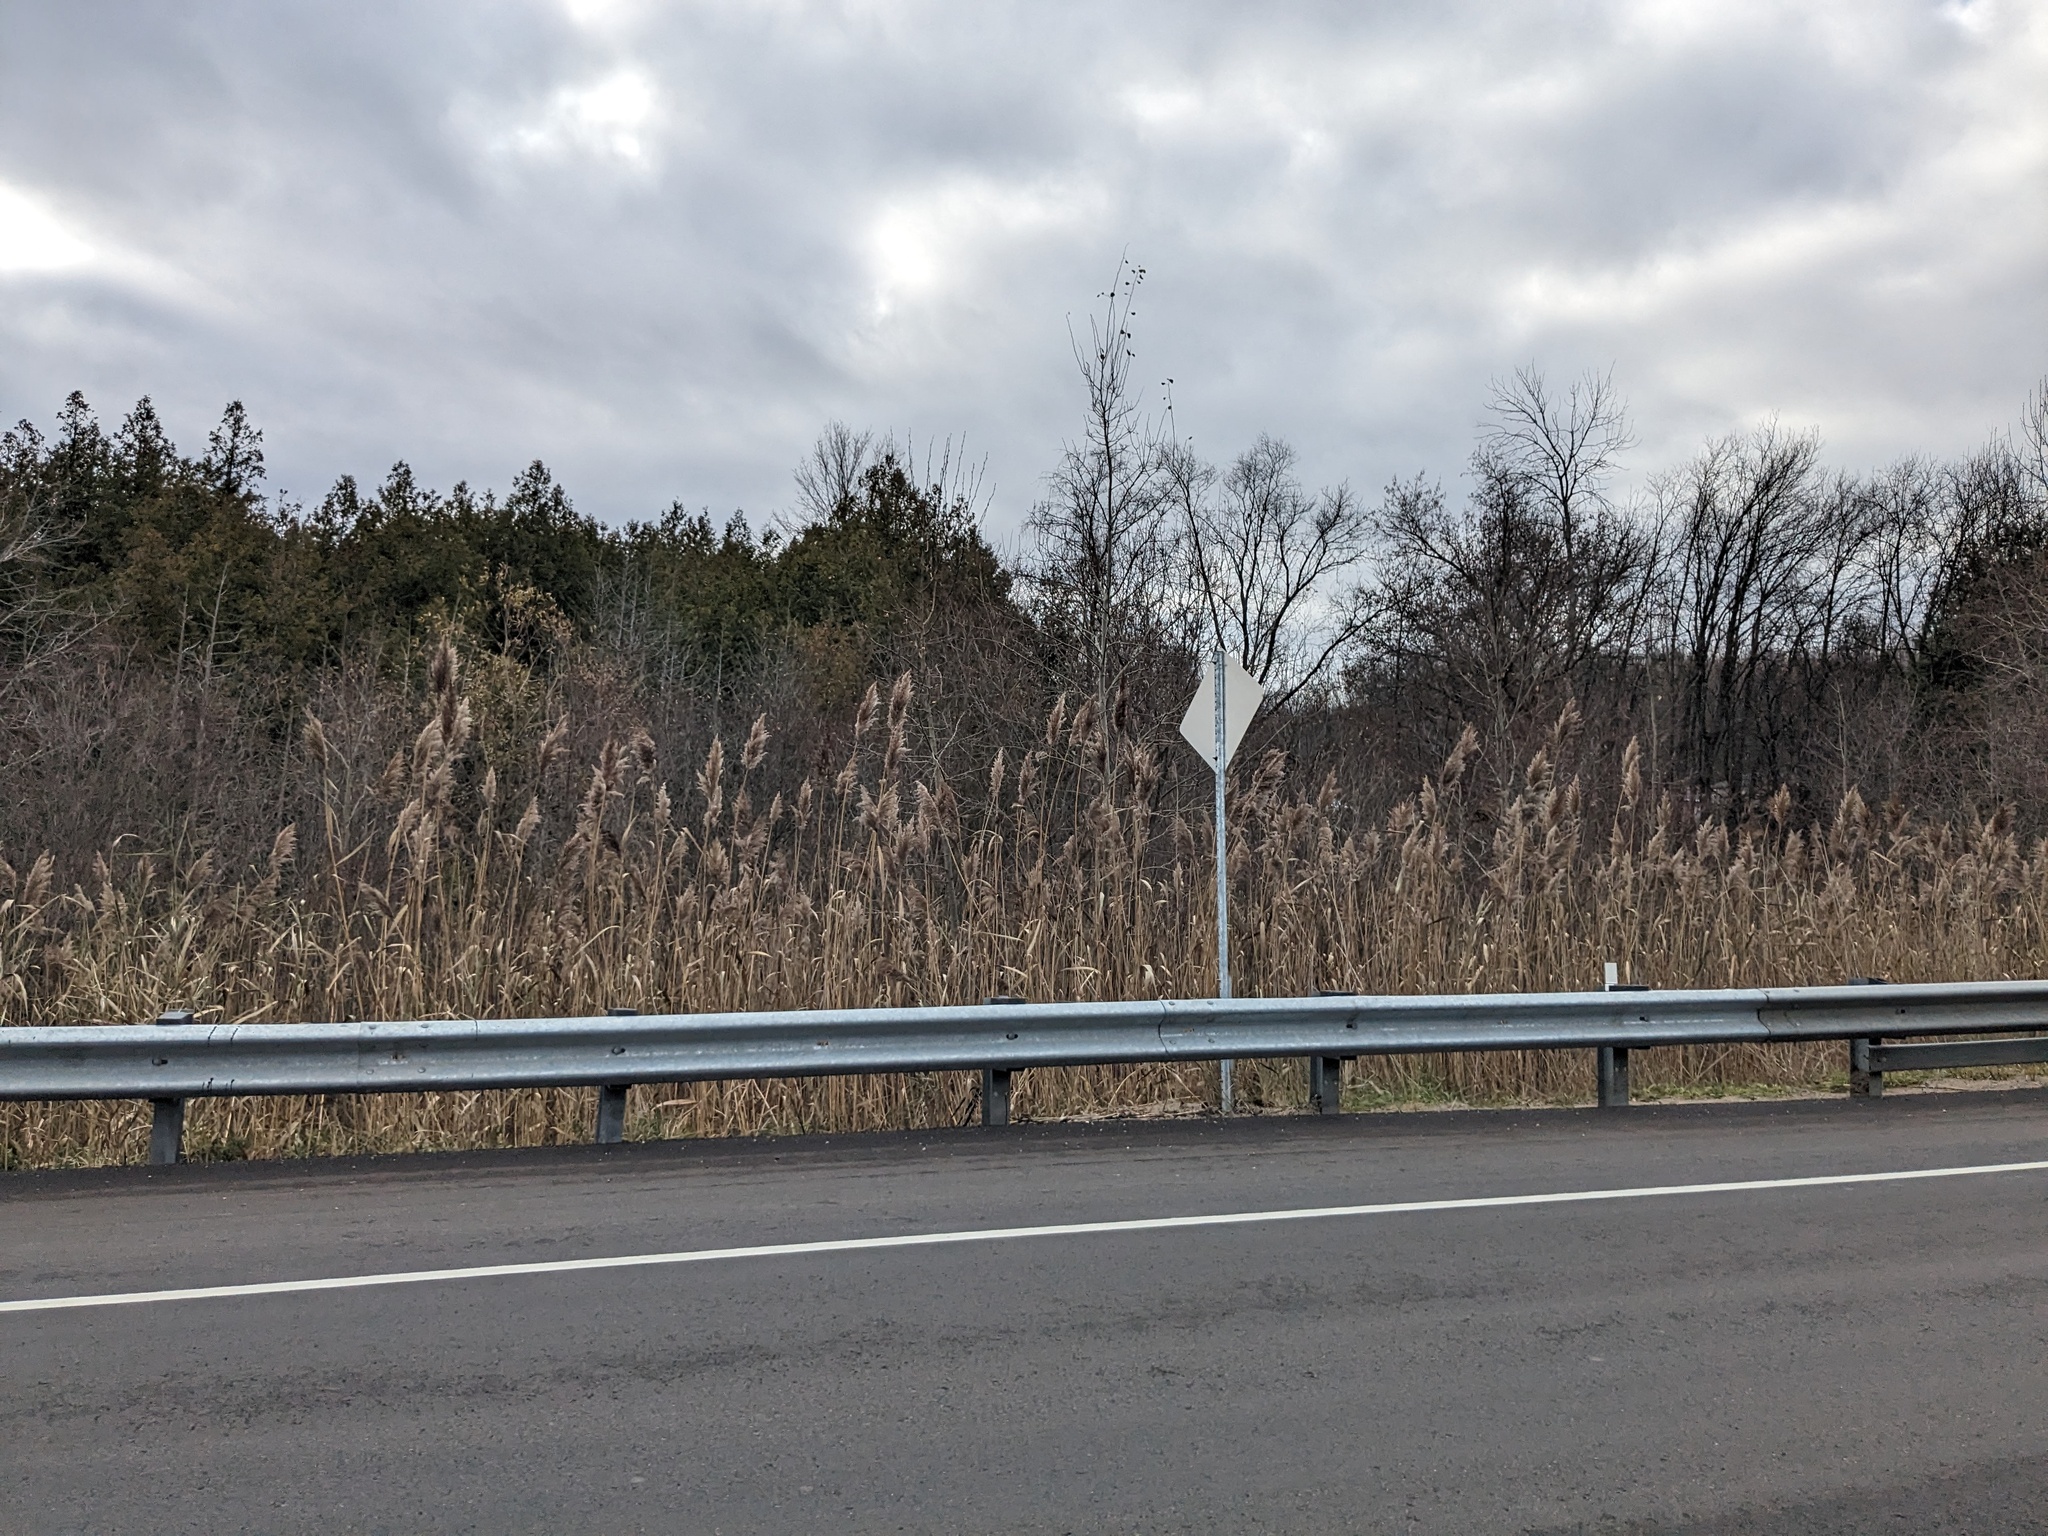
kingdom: Plantae
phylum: Tracheophyta
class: Liliopsida
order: Poales
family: Poaceae
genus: Phragmites
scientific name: Phragmites australis
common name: Common reed
